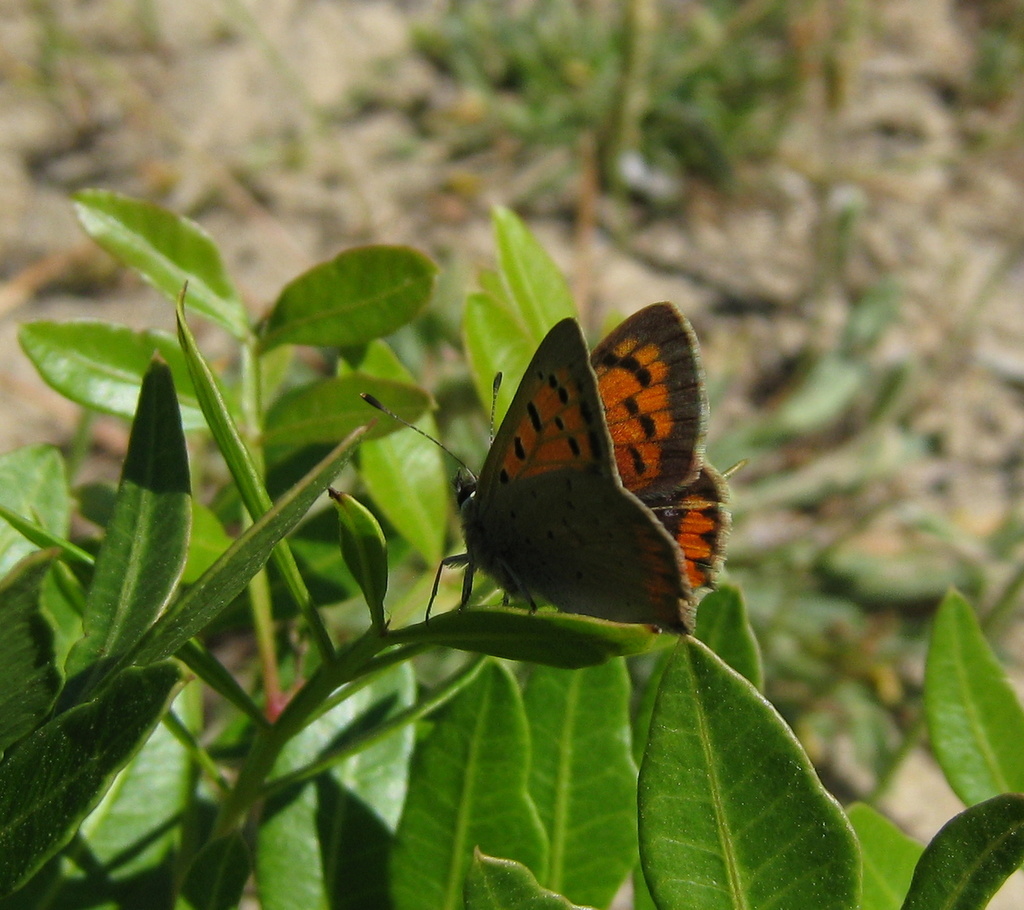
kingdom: Animalia
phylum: Arthropoda
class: Insecta
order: Lepidoptera
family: Lycaenidae
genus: Lycaena
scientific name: Lycaena phlaeas
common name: Small copper
